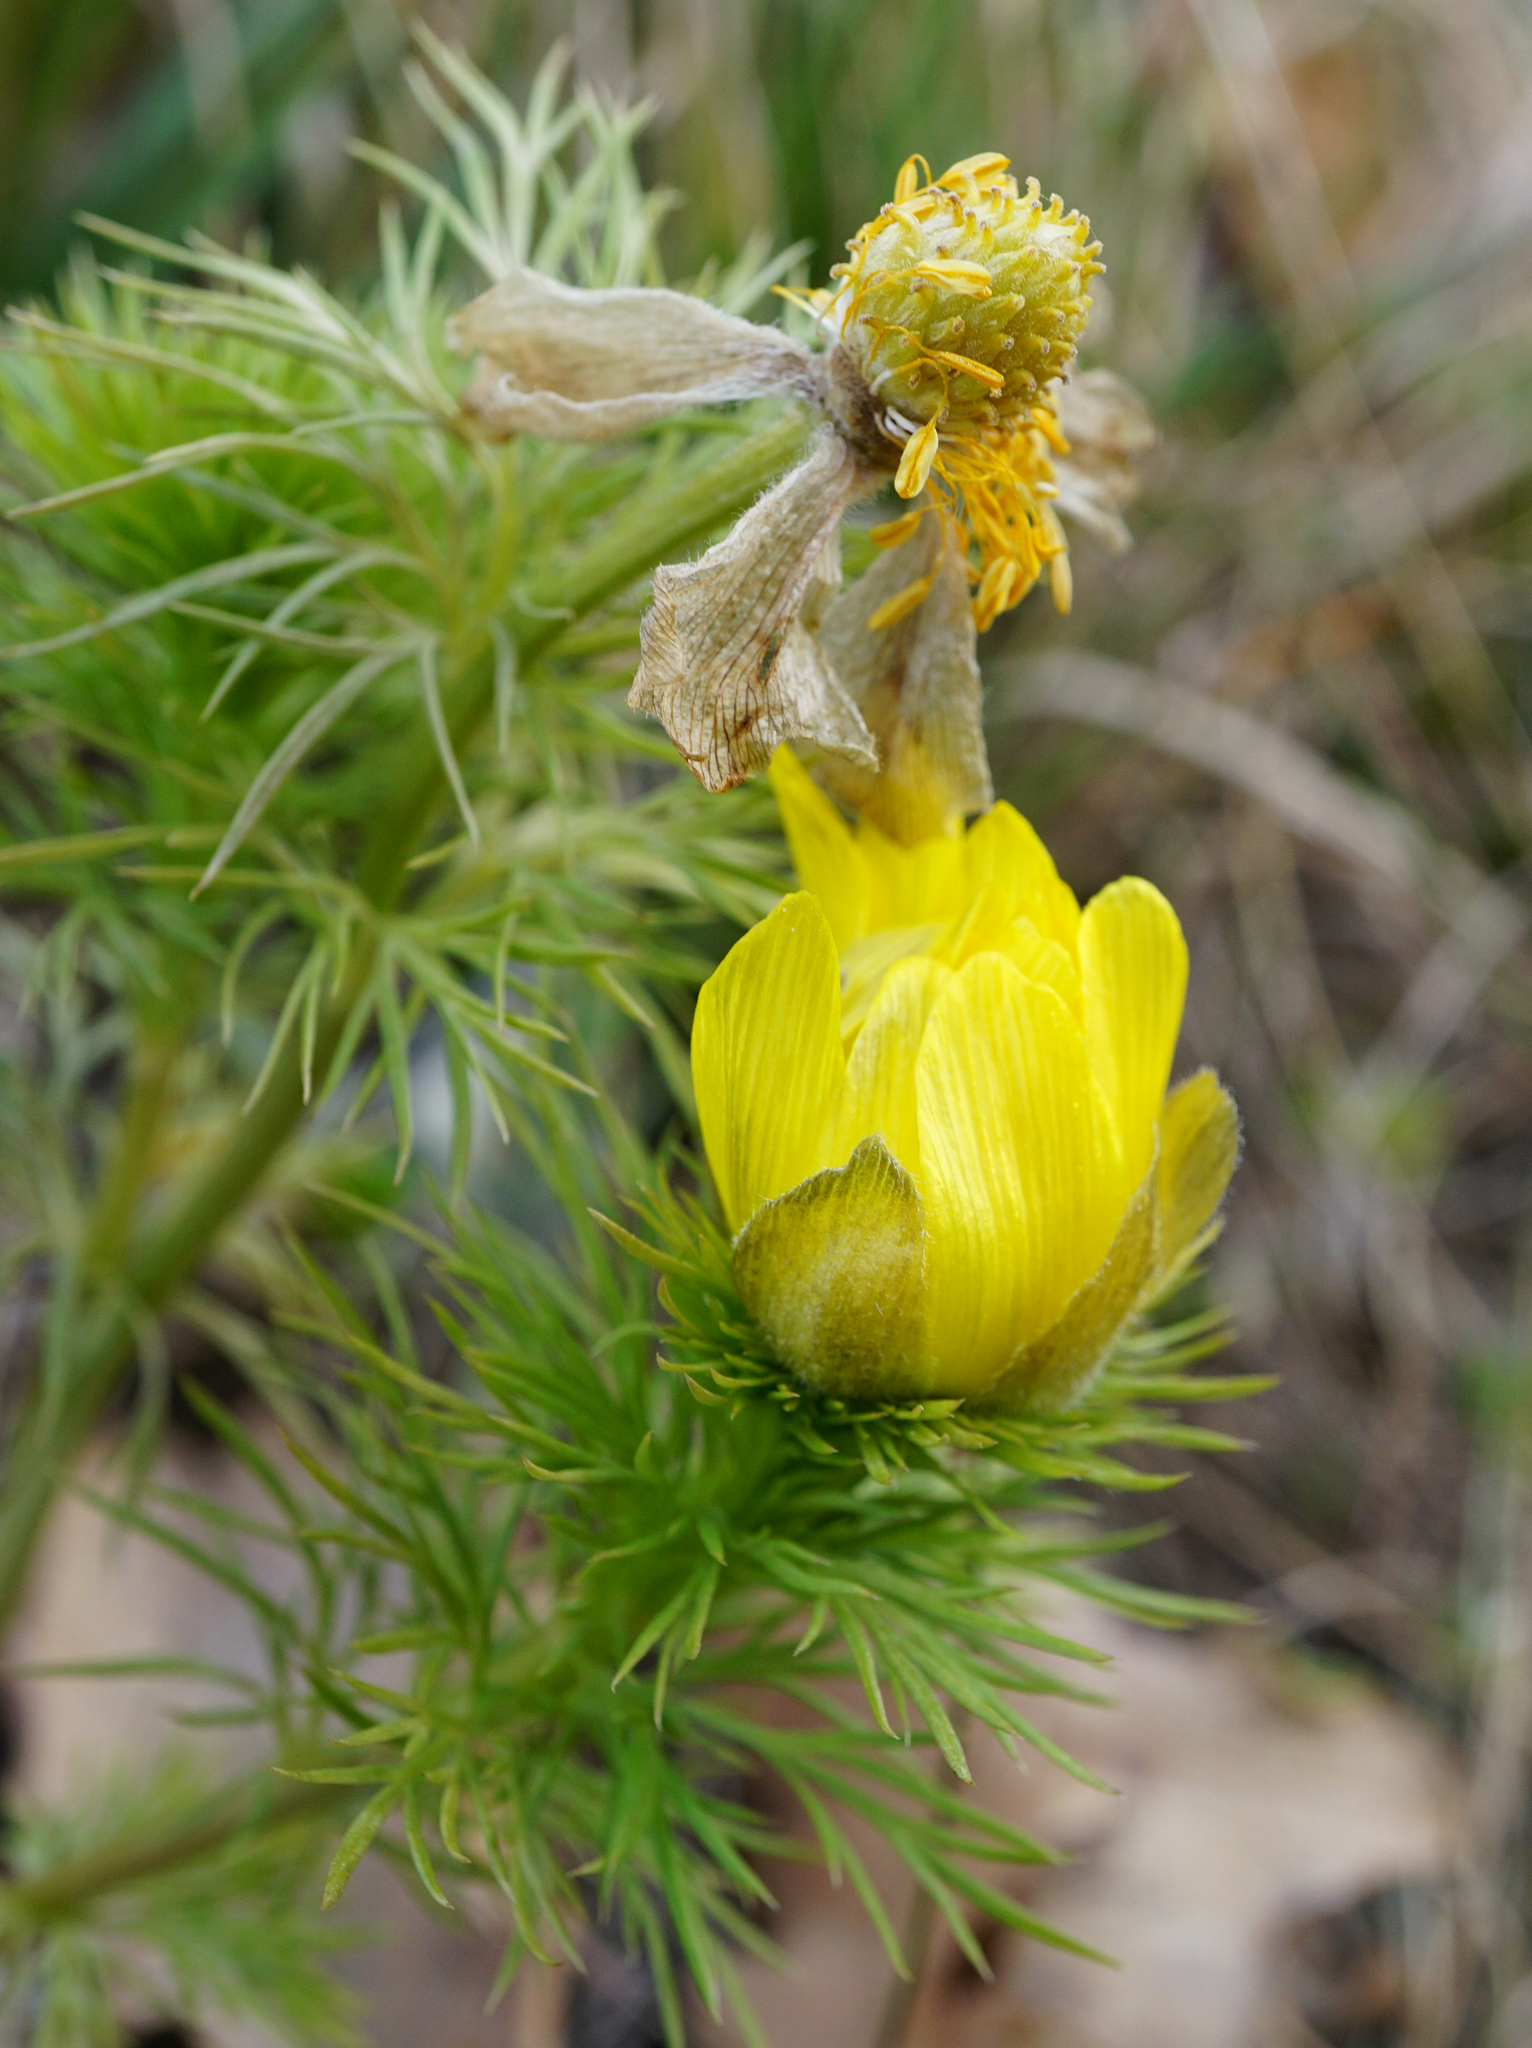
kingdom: Plantae
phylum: Tracheophyta
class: Magnoliopsida
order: Ranunculales
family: Ranunculaceae
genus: Adonis
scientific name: Adonis vernalis
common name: Yellow pheasants-eye
